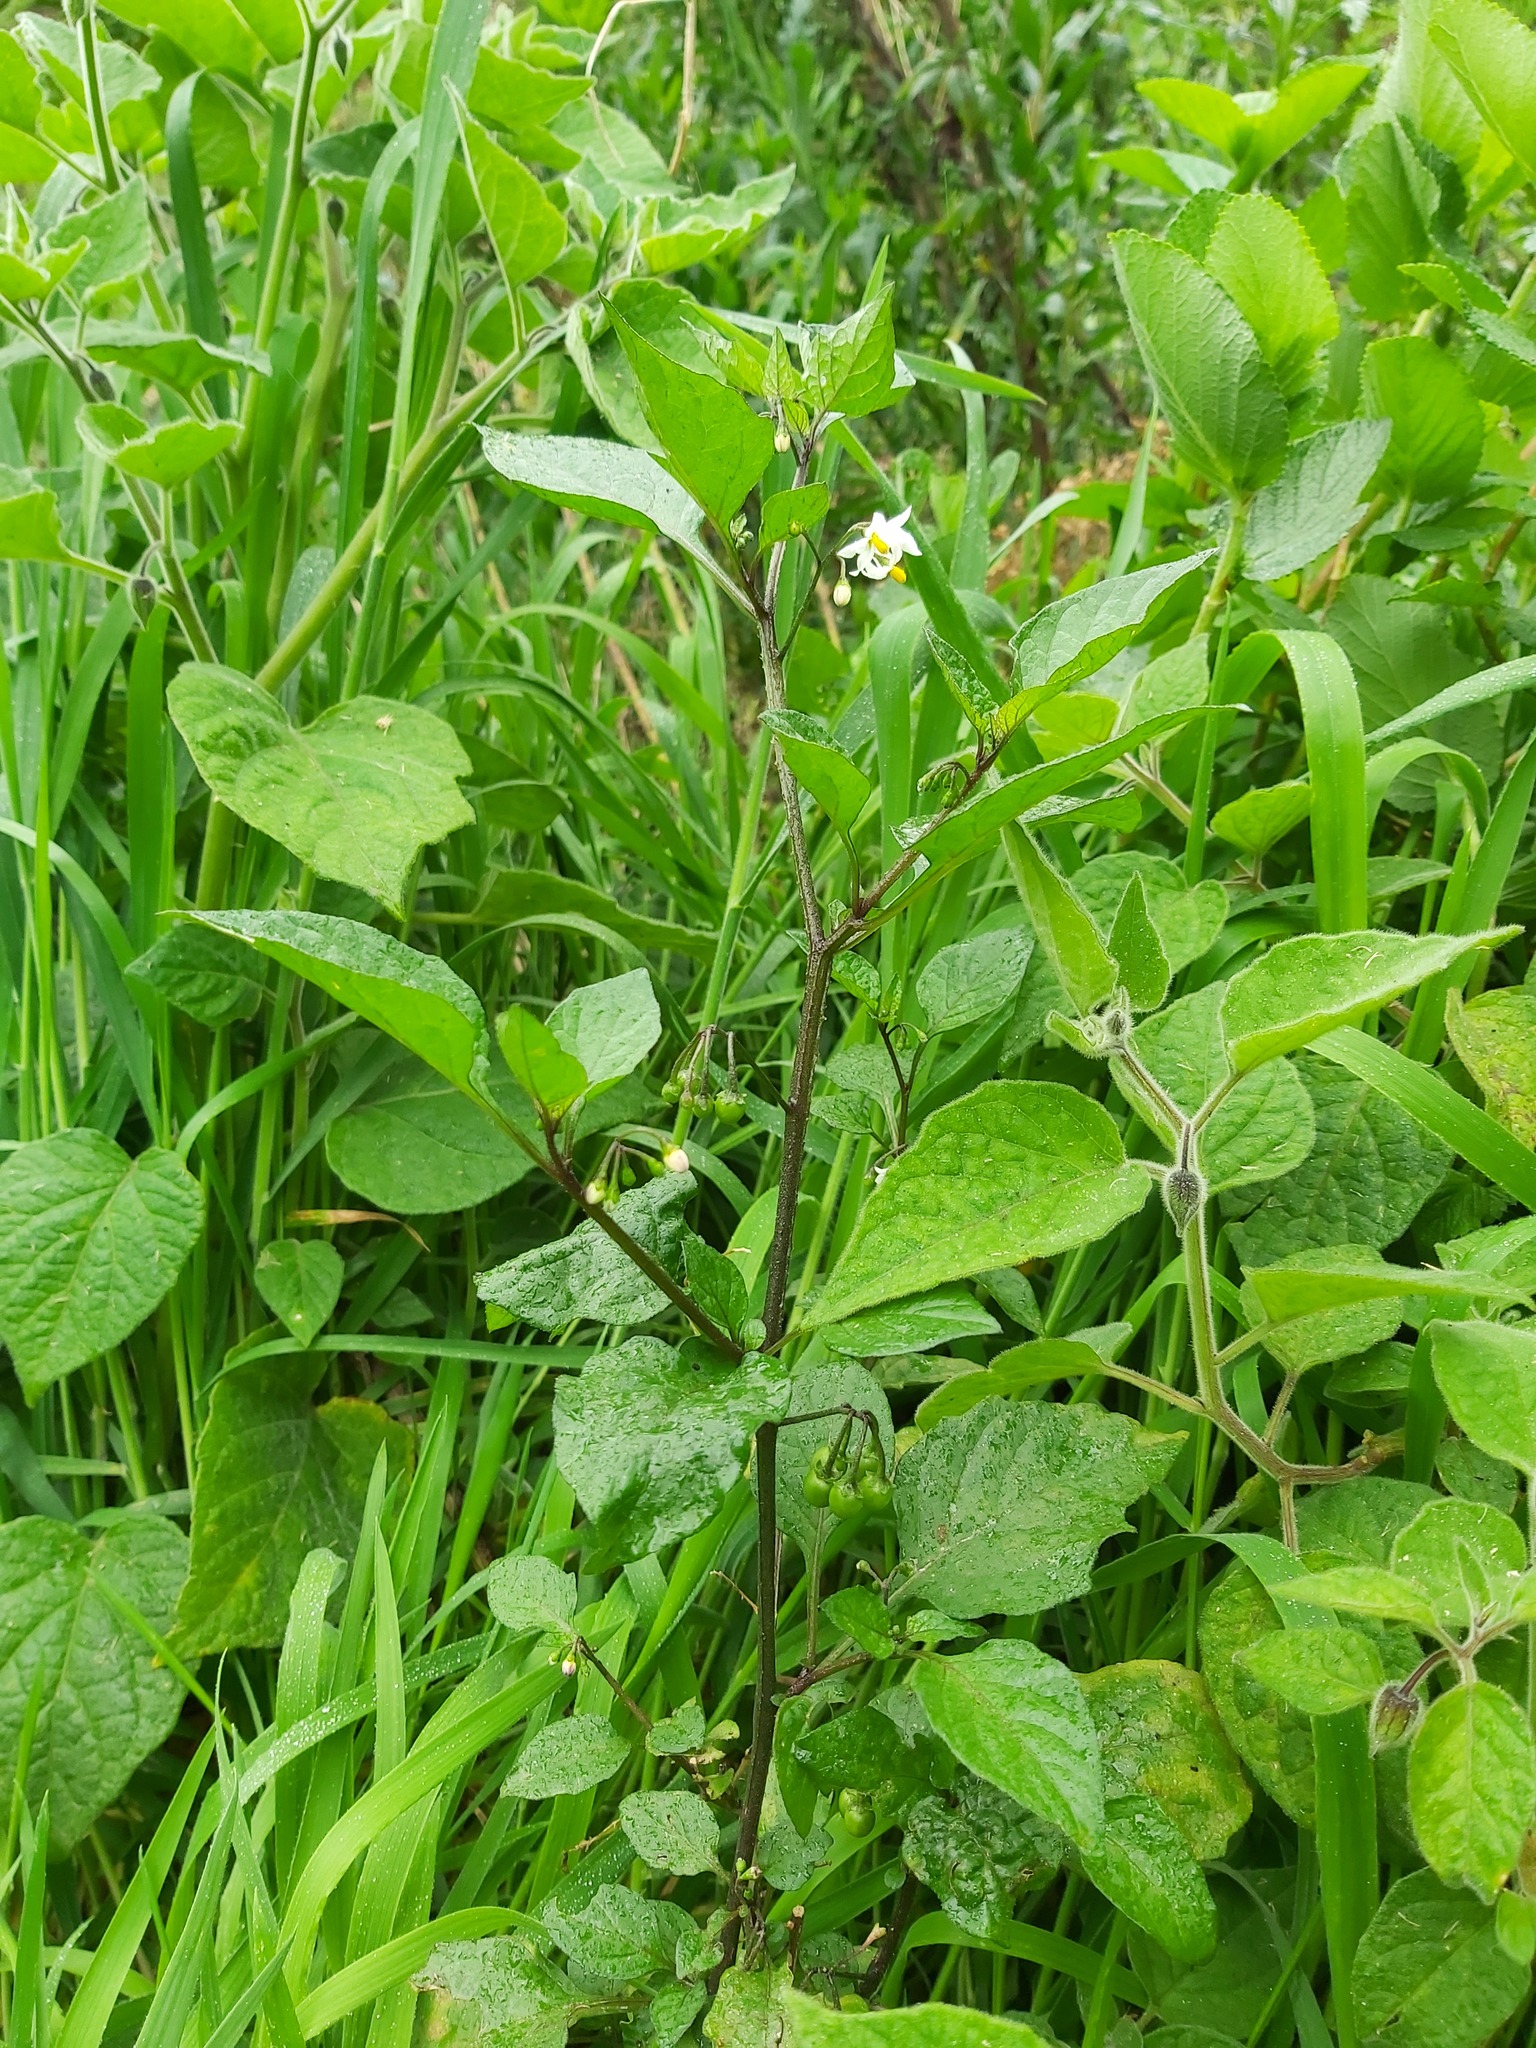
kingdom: Plantae
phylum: Tracheophyta
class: Magnoliopsida
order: Solanales
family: Solanaceae
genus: Solanum
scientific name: Solanum nigrum
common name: Black nightshade
